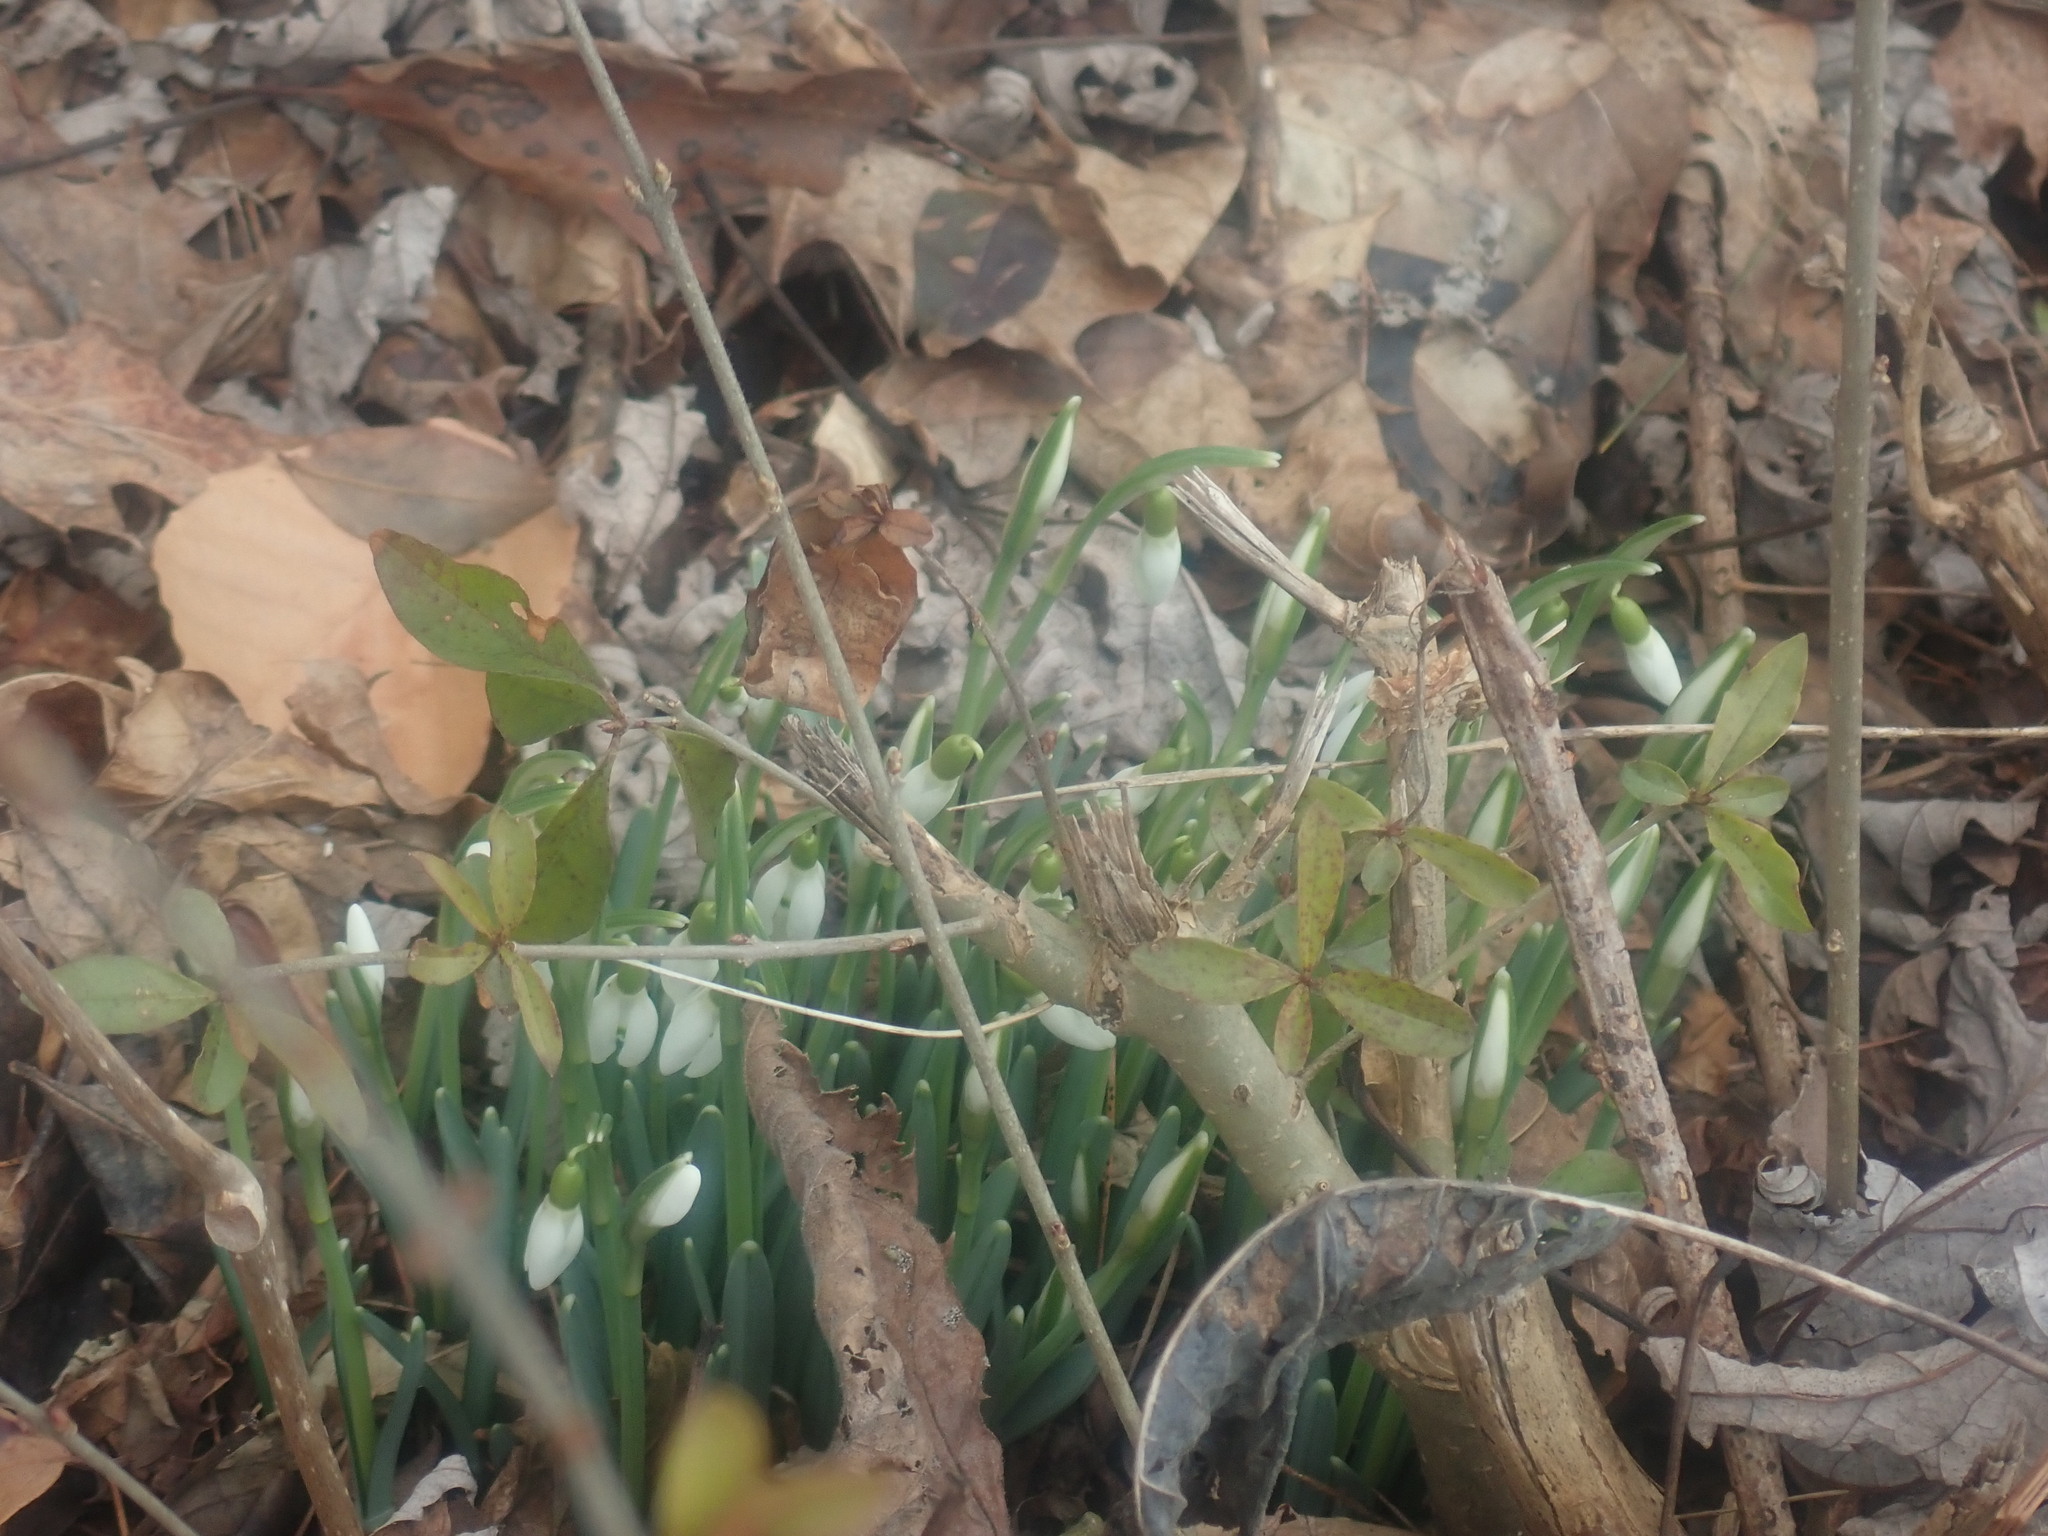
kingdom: Plantae
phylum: Tracheophyta
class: Liliopsida
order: Asparagales
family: Amaryllidaceae
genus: Galanthus
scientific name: Galanthus nivalis
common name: Snowdrop
